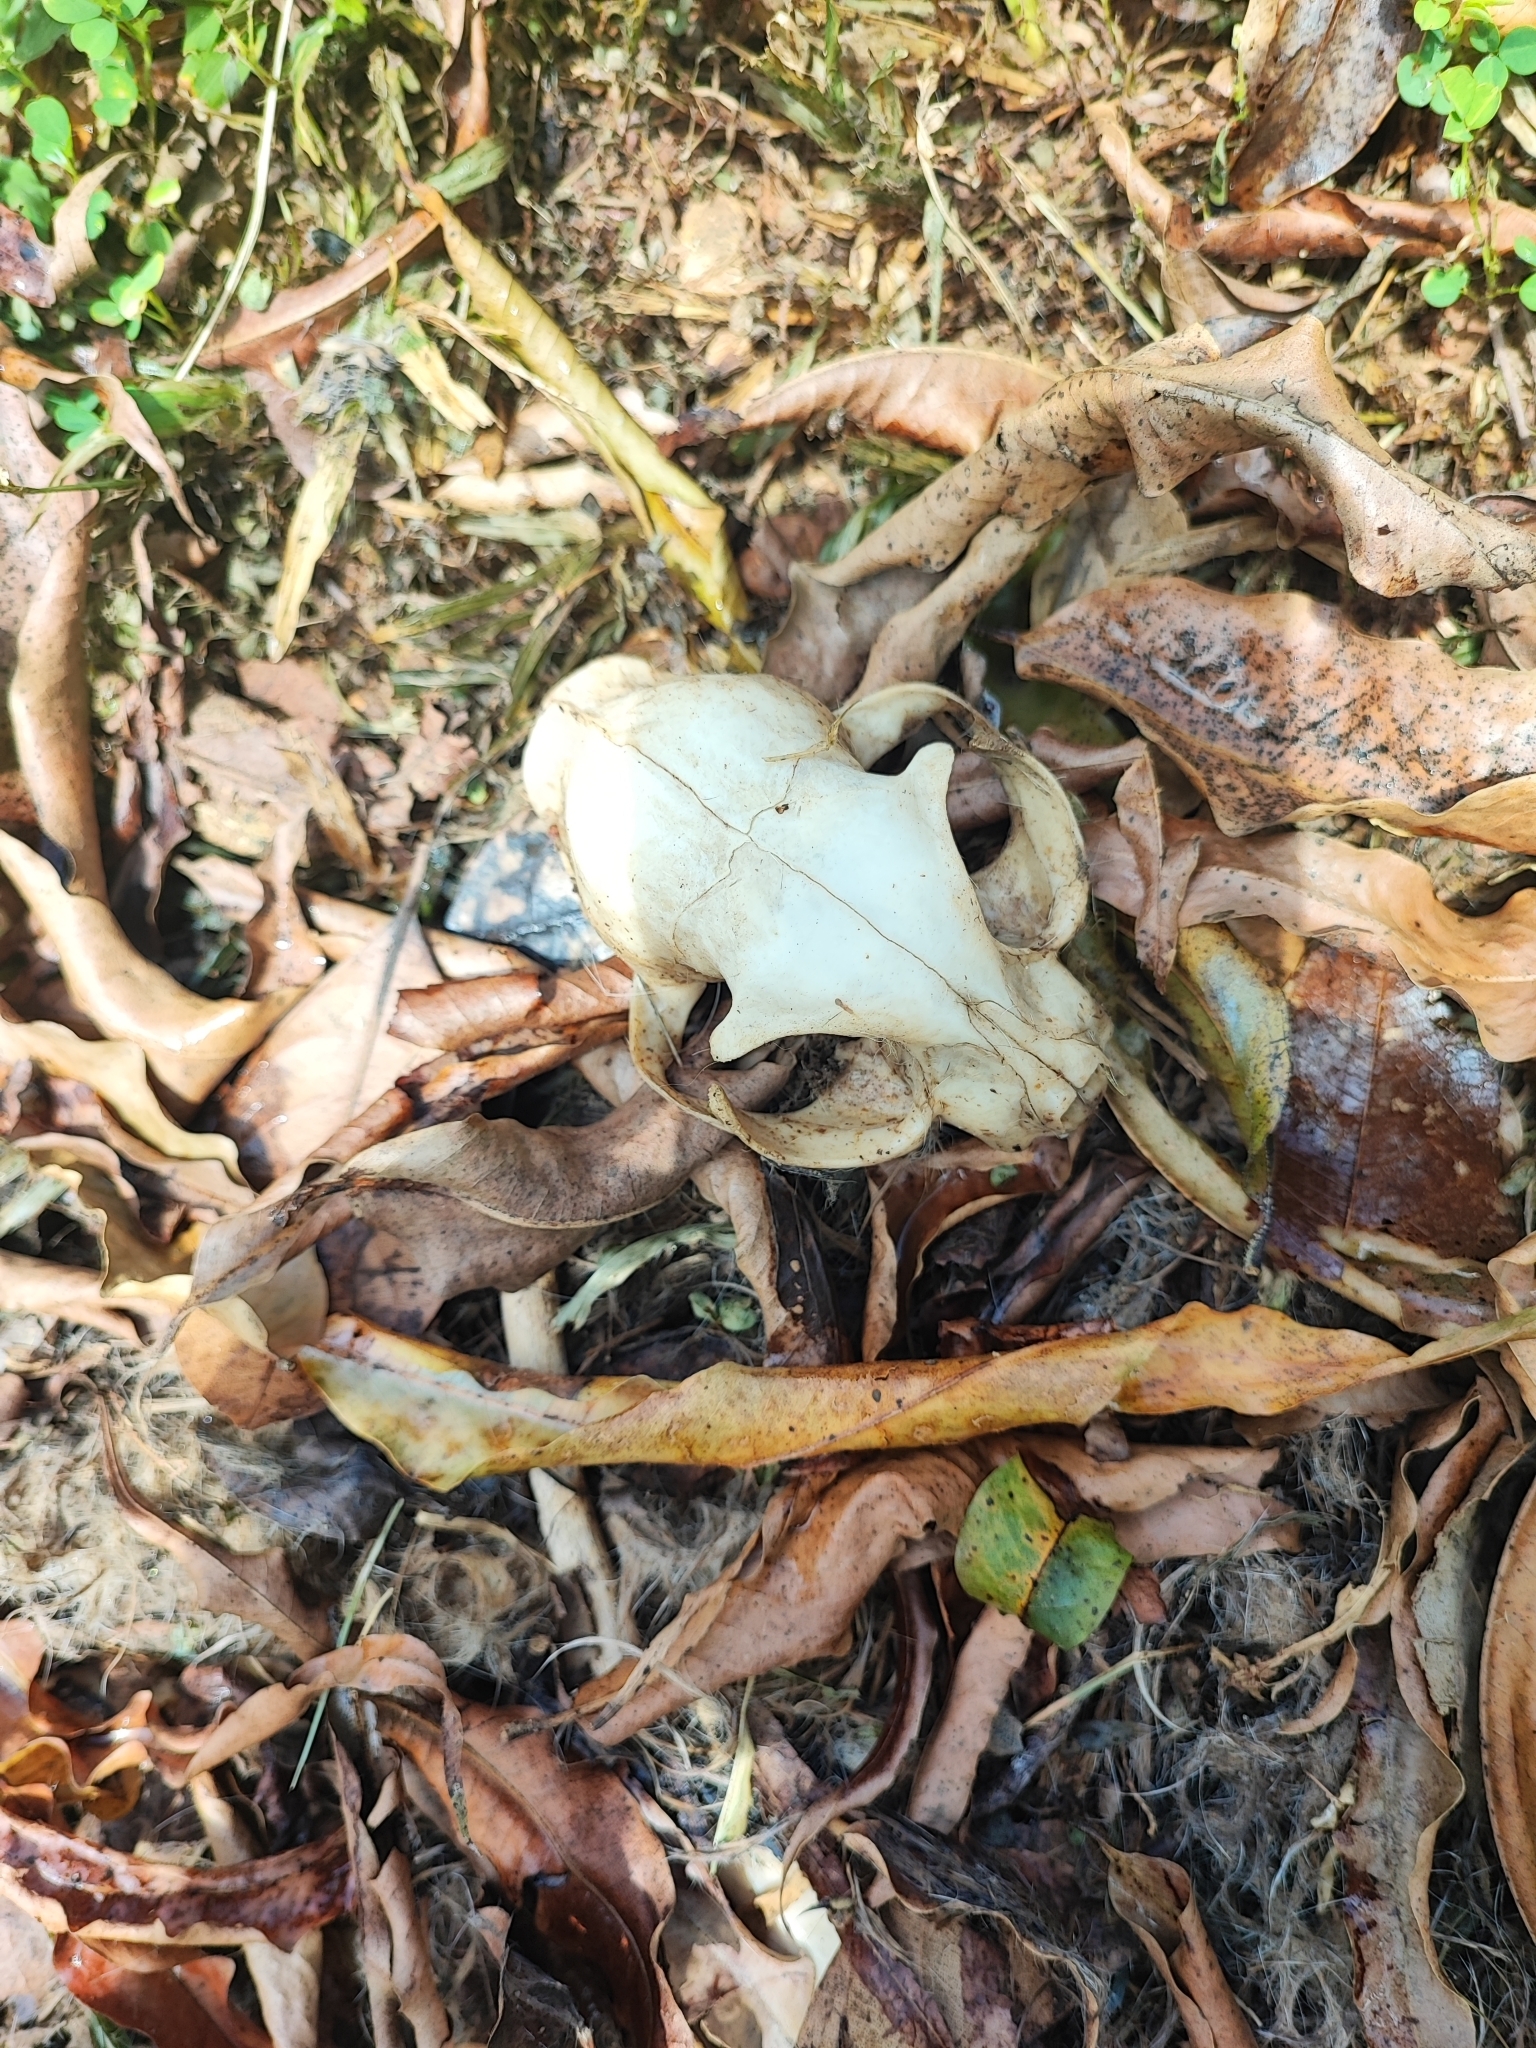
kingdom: Animalia
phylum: Chordata
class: Mammalia
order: Carnivora
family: Felidae
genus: Felis
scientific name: Felis catus
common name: Domestic cat
